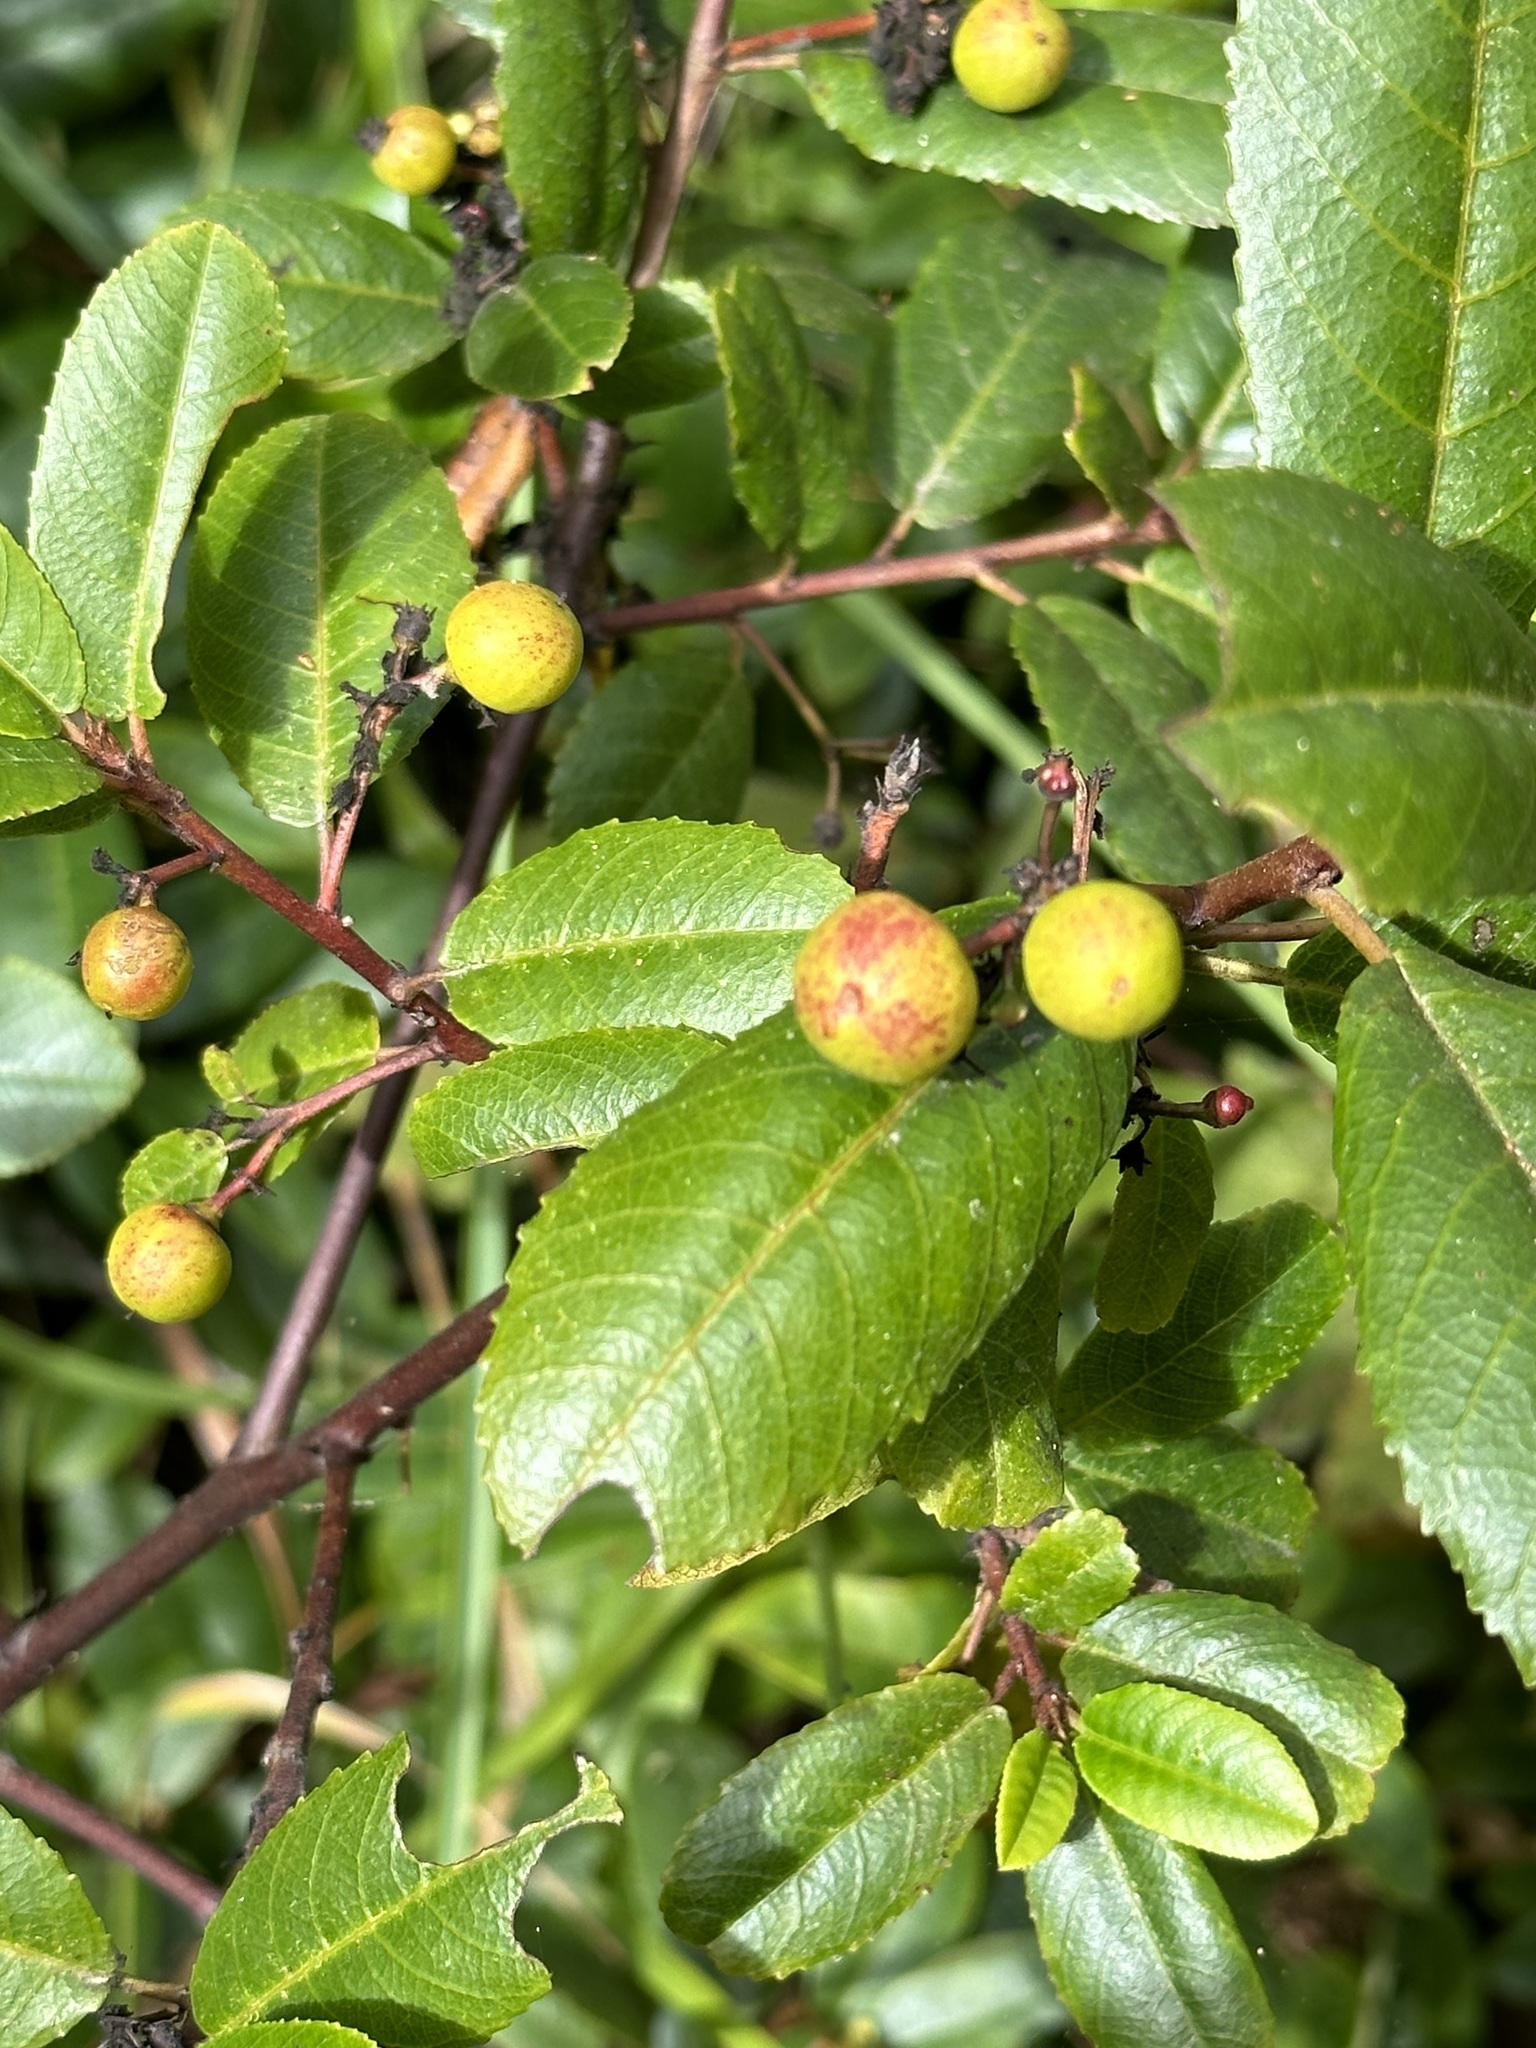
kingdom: Plantae
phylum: Tracheophyta
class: Magnoliopsida
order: Rosales
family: Rhamnaceae
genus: Frangula
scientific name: Frangula californica
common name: California buckthorn
